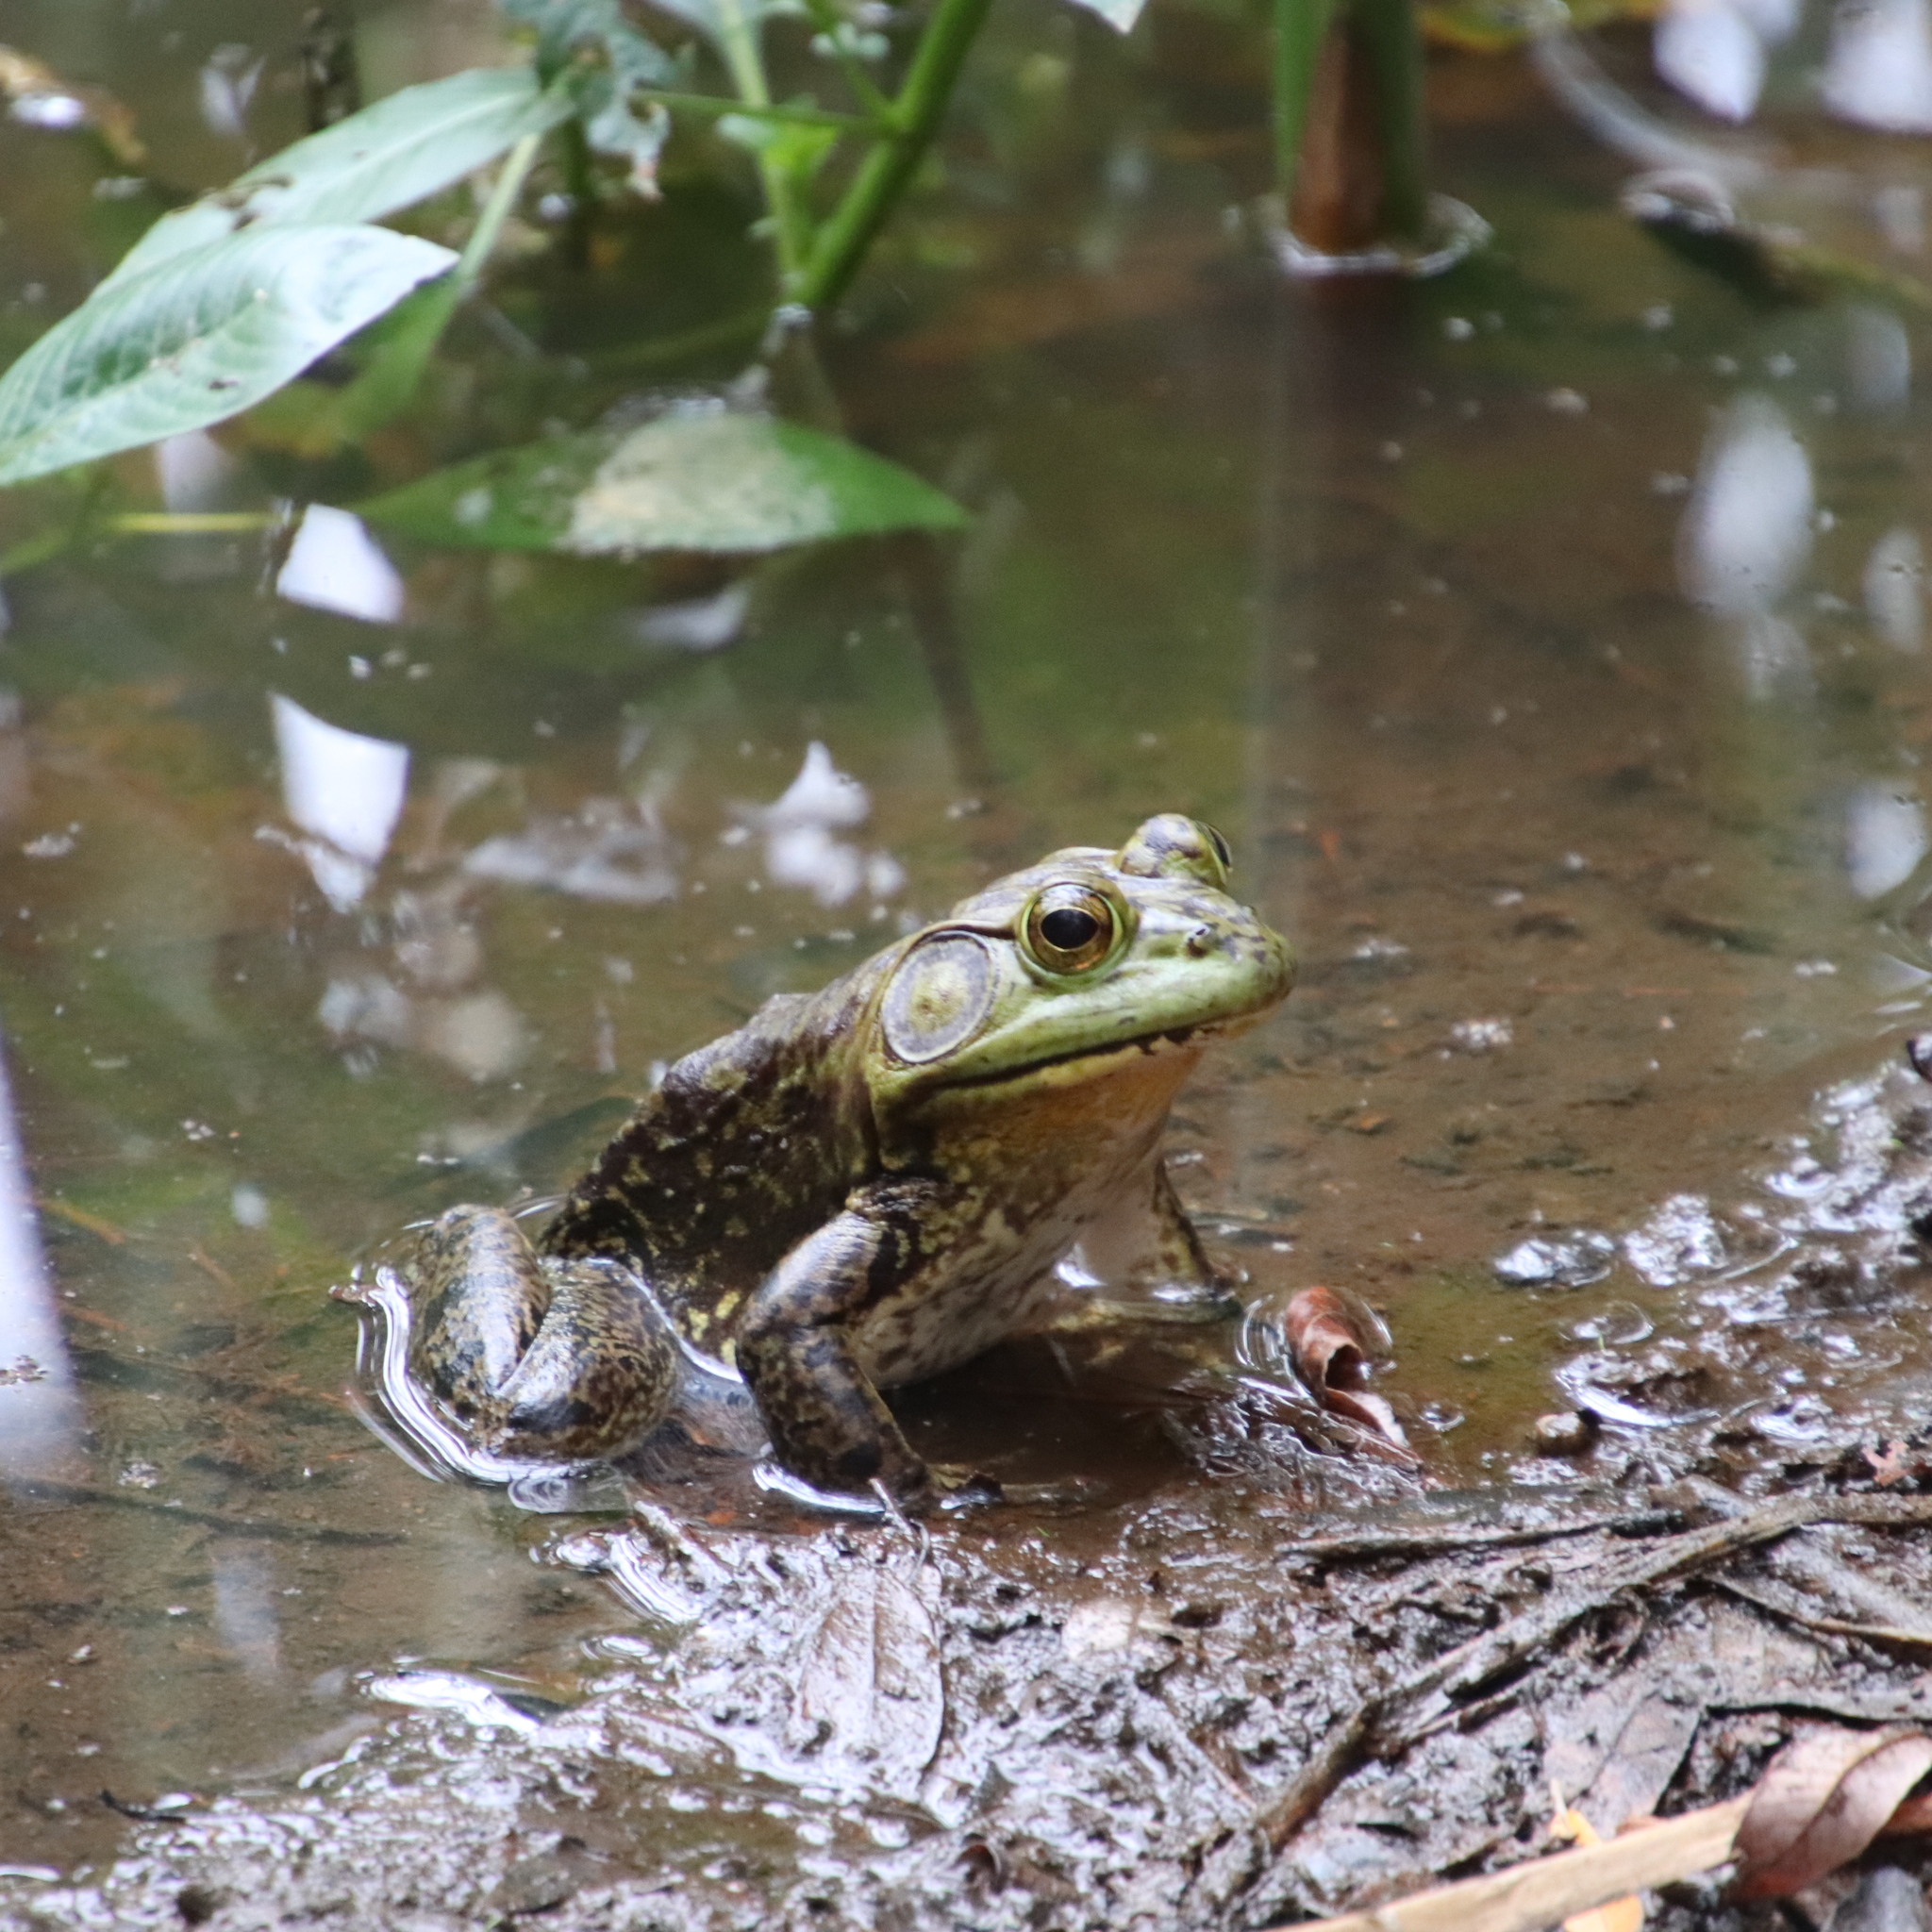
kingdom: Animalia
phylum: Chordata
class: Amphibia
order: Anura
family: Ranidae
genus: Lithobates
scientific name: Lithobates catesbeianus
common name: American bullfrog
